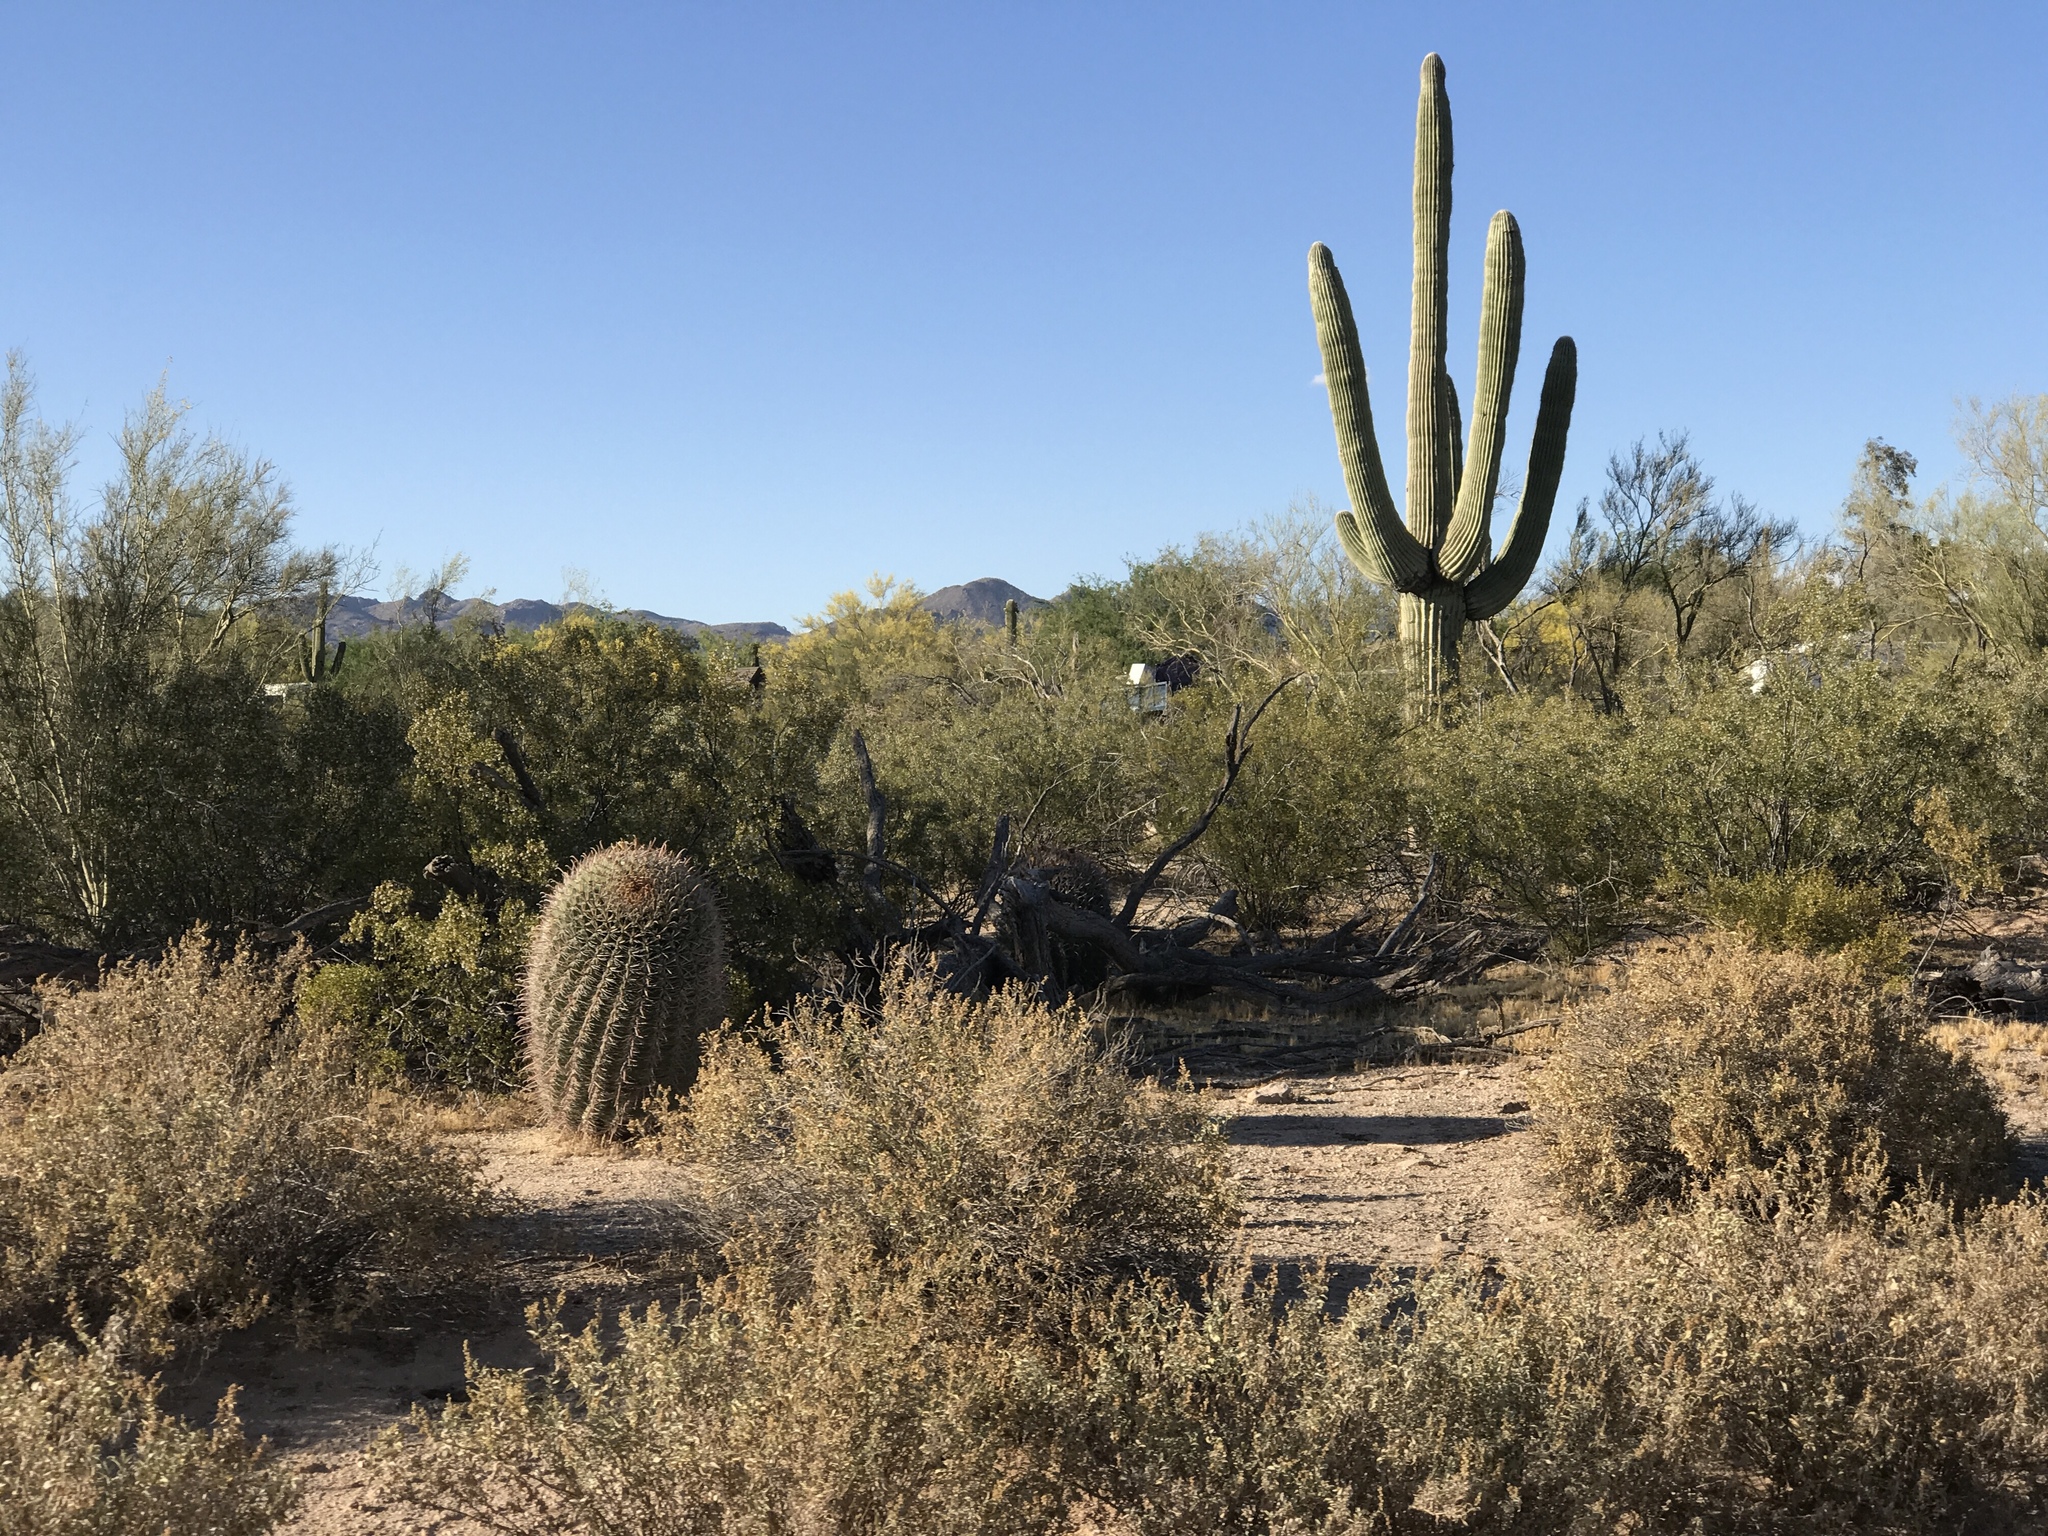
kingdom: Plantae
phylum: Tracheophyta
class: Magnoliopsida
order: Caryophyllales
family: Cactaceae
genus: Carnegiea
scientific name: Carnegiea gigantea
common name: Saguaro
